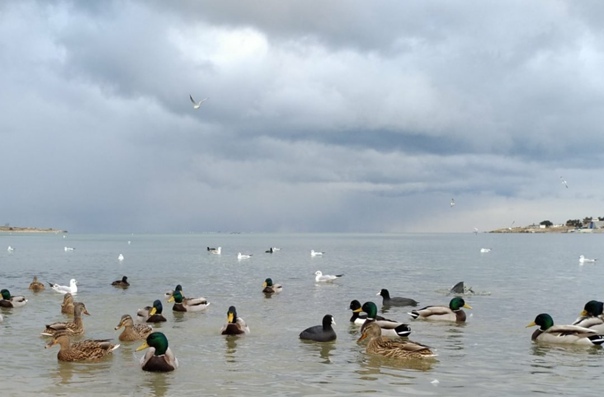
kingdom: Animalia
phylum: Chordata
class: Aves
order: Charadriiformes
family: Laridae
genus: Chroicocephalus
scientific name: Chroicocephalus ridibundus
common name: Black-headed gull
